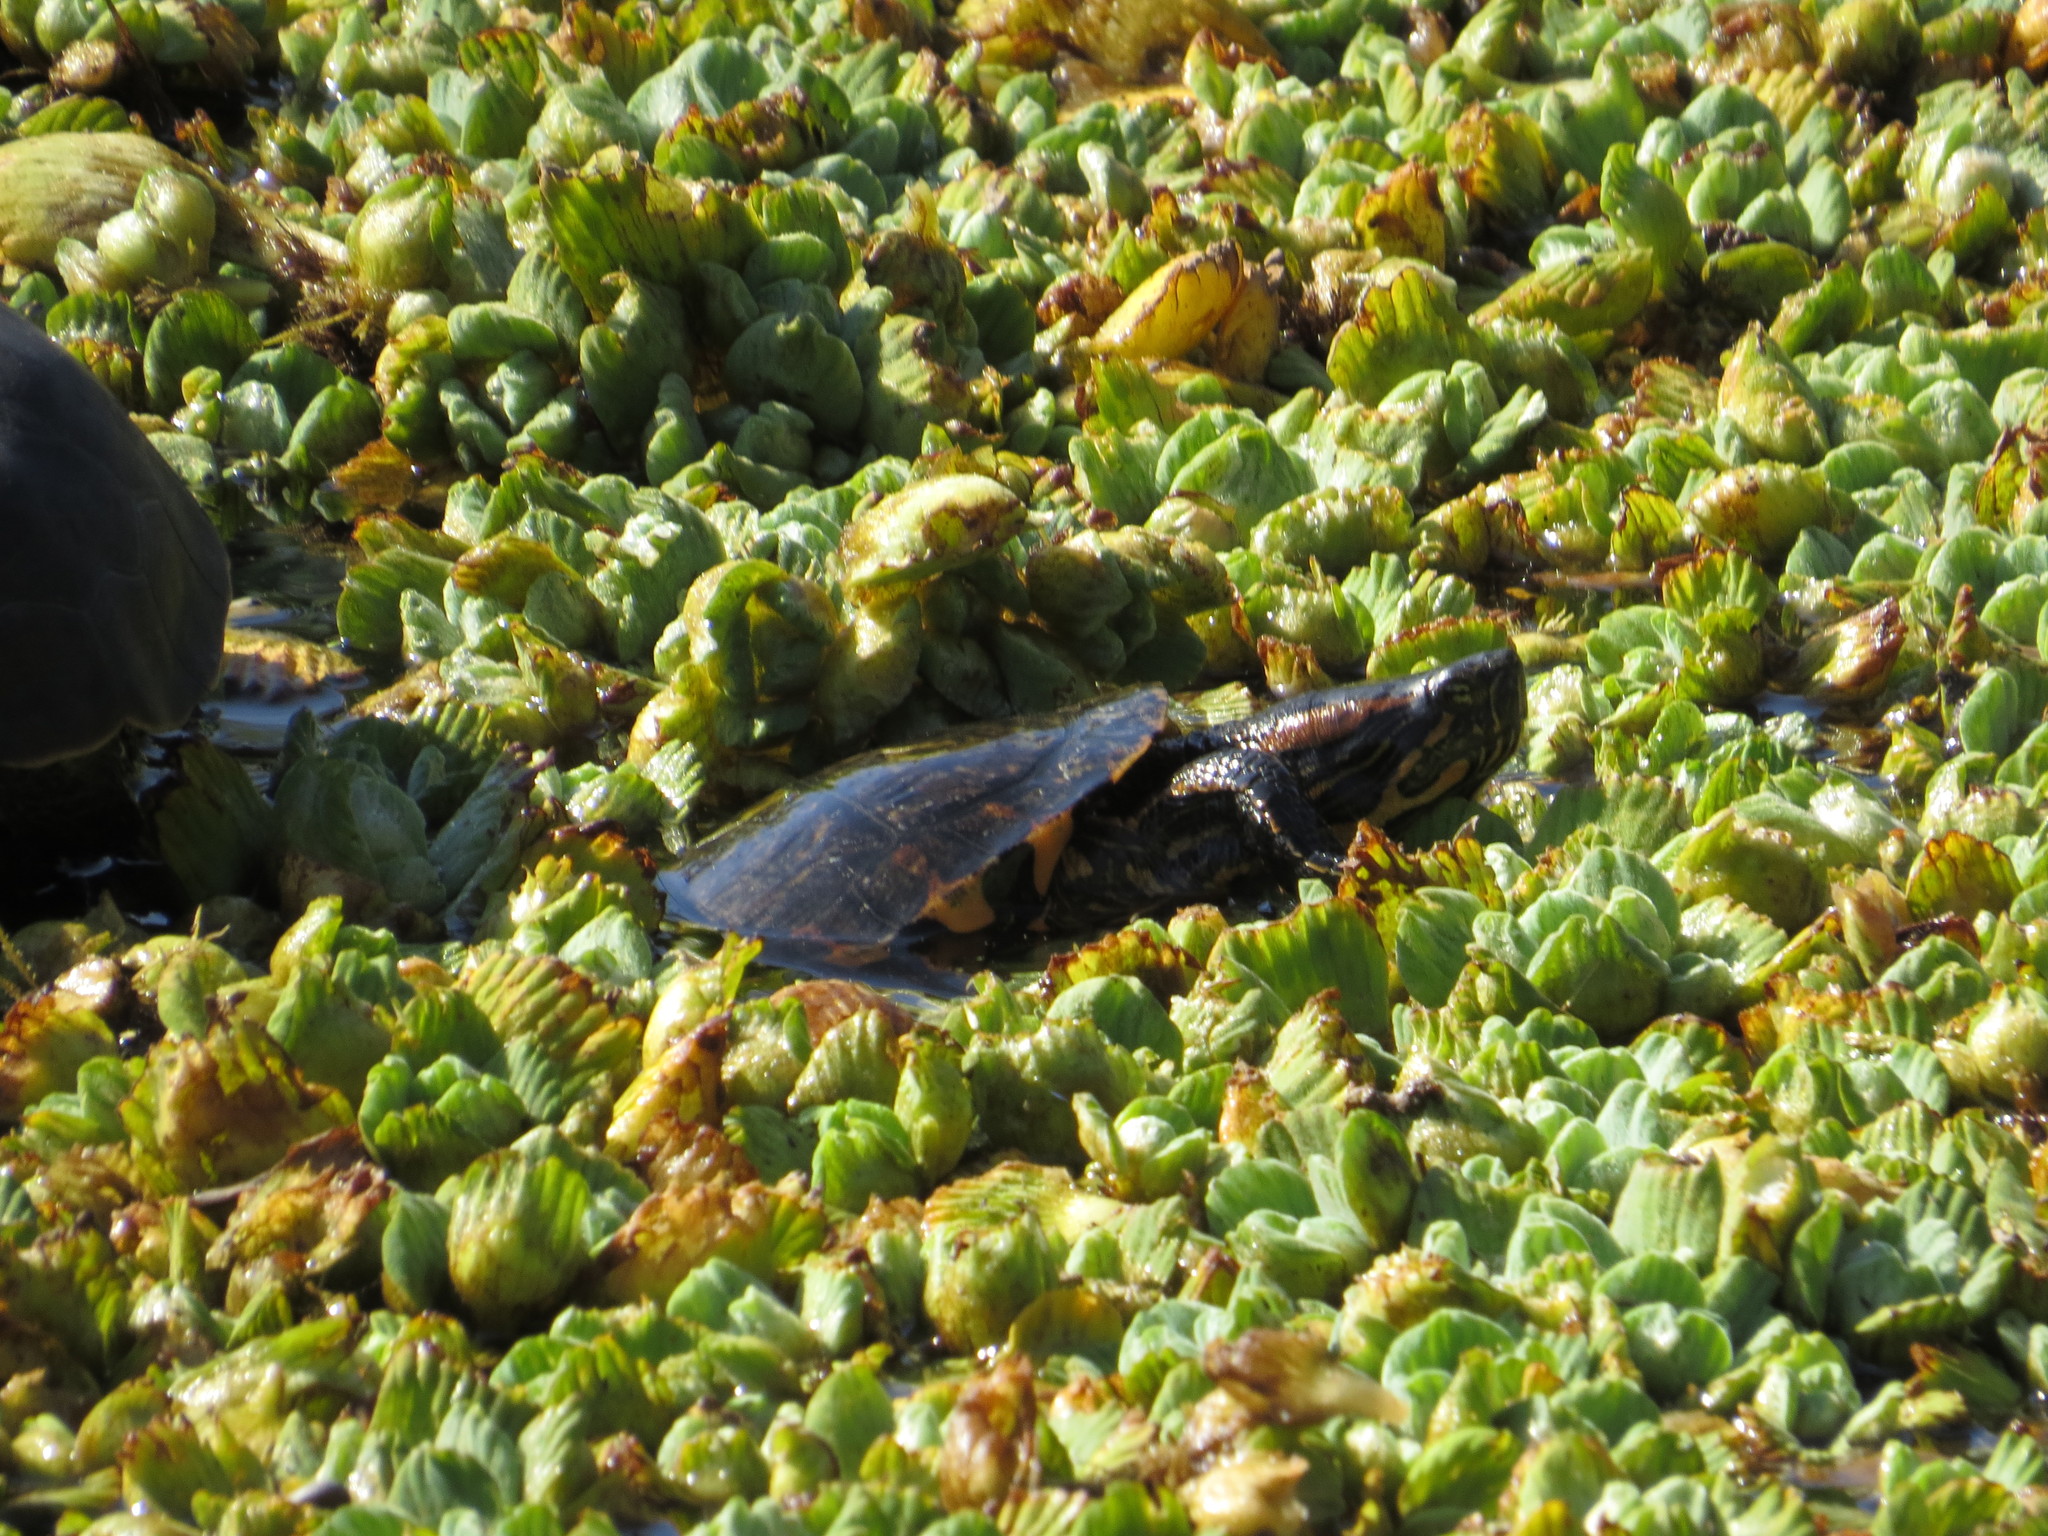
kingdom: Animalia
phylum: Chordata
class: Testudines
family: Emydidae
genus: Trachemys
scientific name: Trachemys dorbigni
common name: Black-bellied slider
